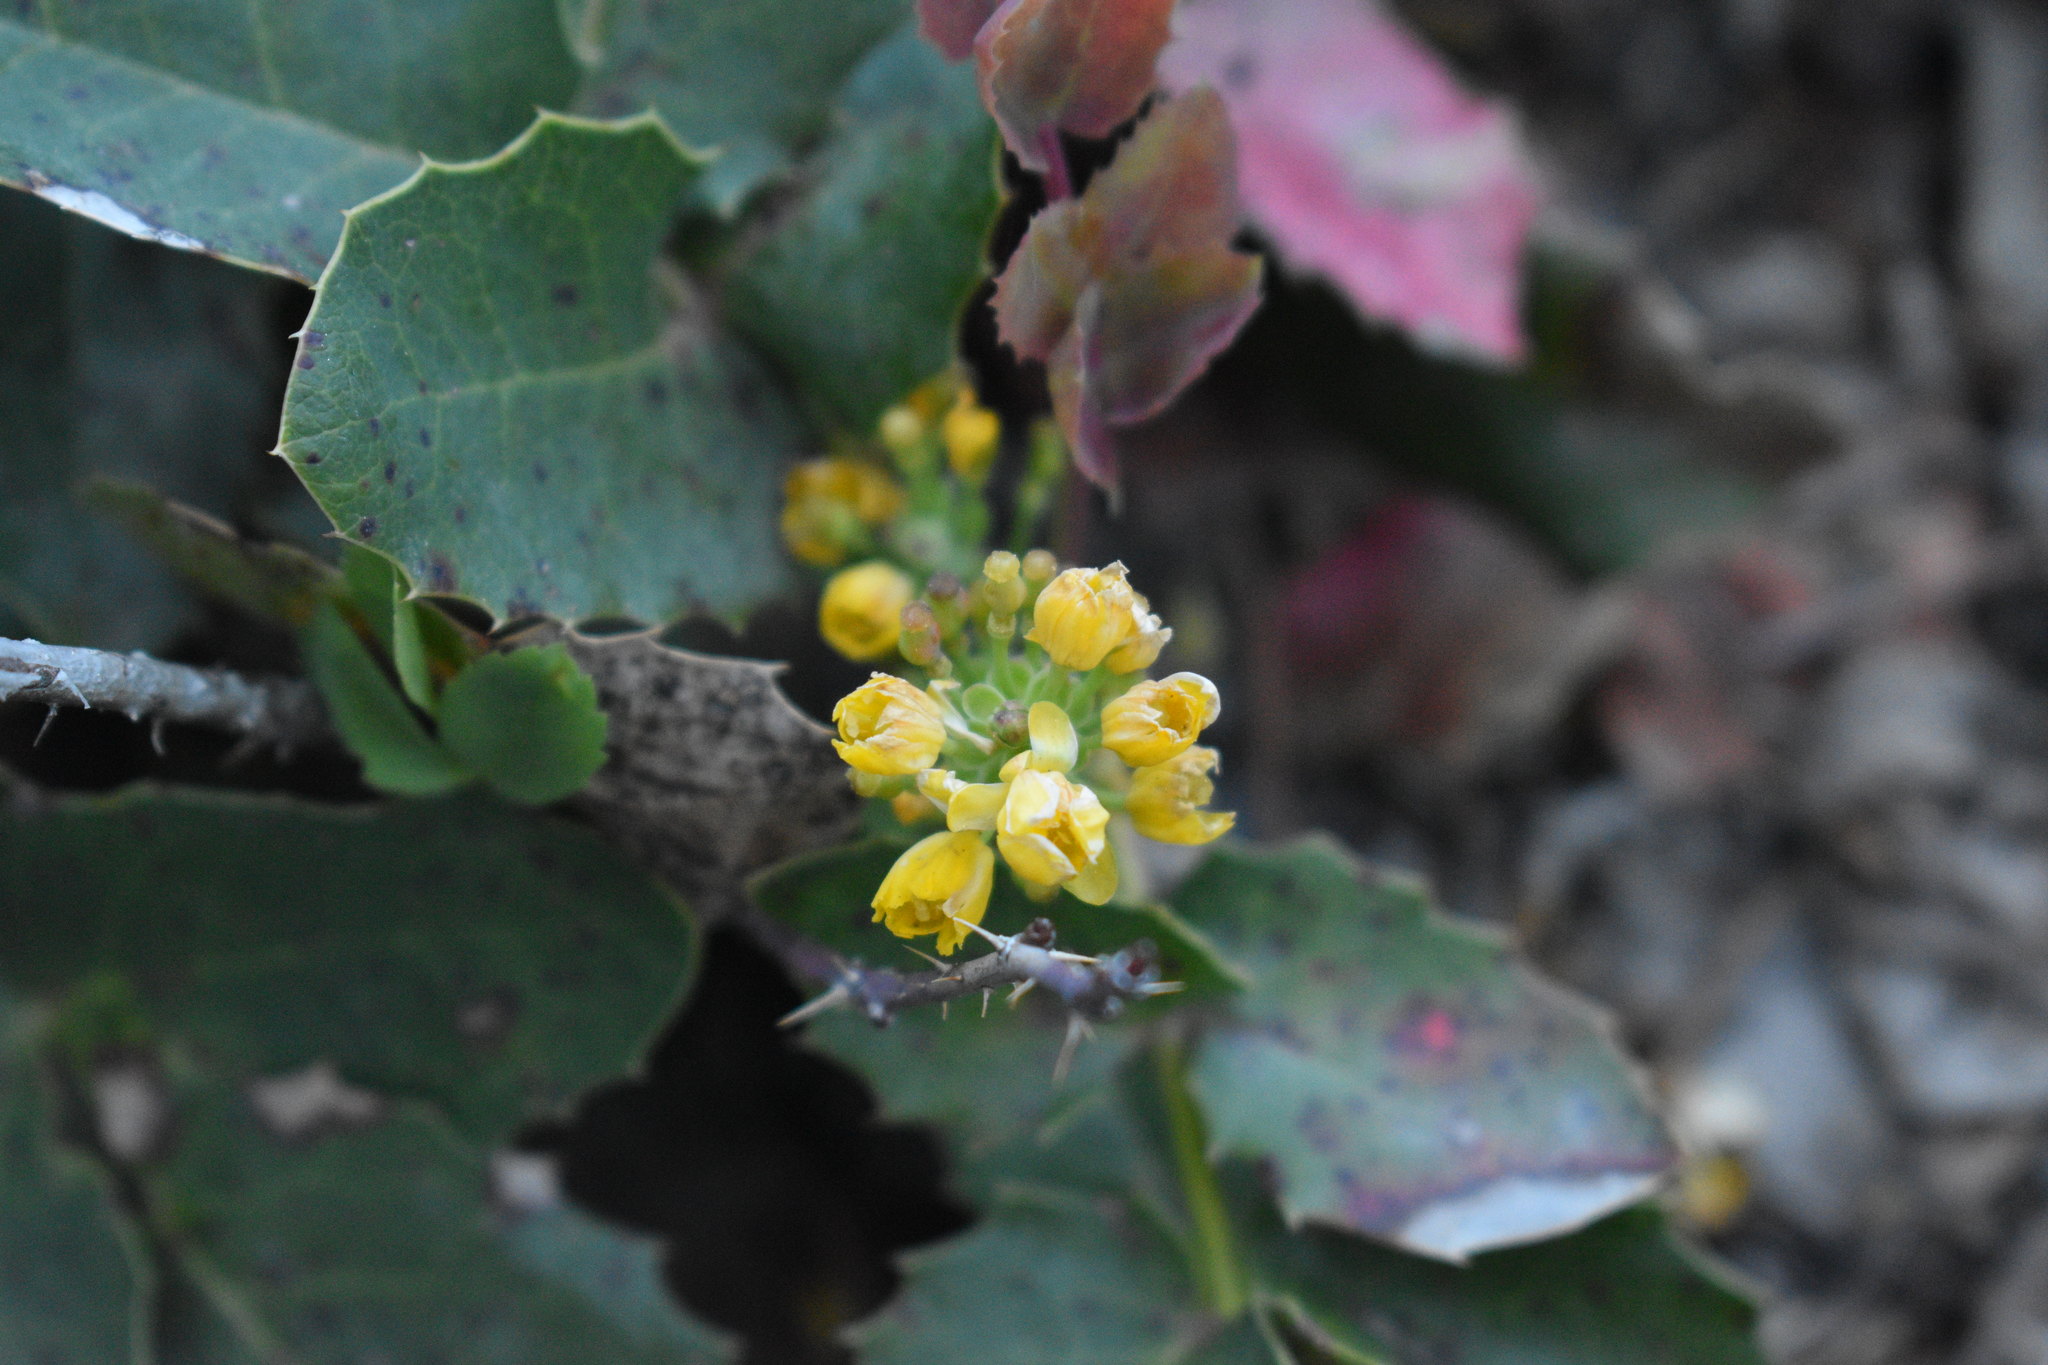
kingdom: Plantae
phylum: Tracheophyta
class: Magnoliopsida
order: Ranunculales
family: Berberidaceae
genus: Mahonia
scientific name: Mahonia repens
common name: Creeping oregon-grape
